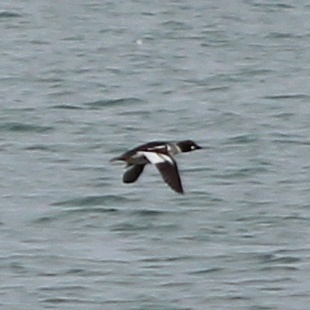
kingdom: Animalia
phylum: Chordata
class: Aves
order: Anseriformes
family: Anatidae
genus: Bucephala
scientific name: Bucephala clangula
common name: Common goldeneye
